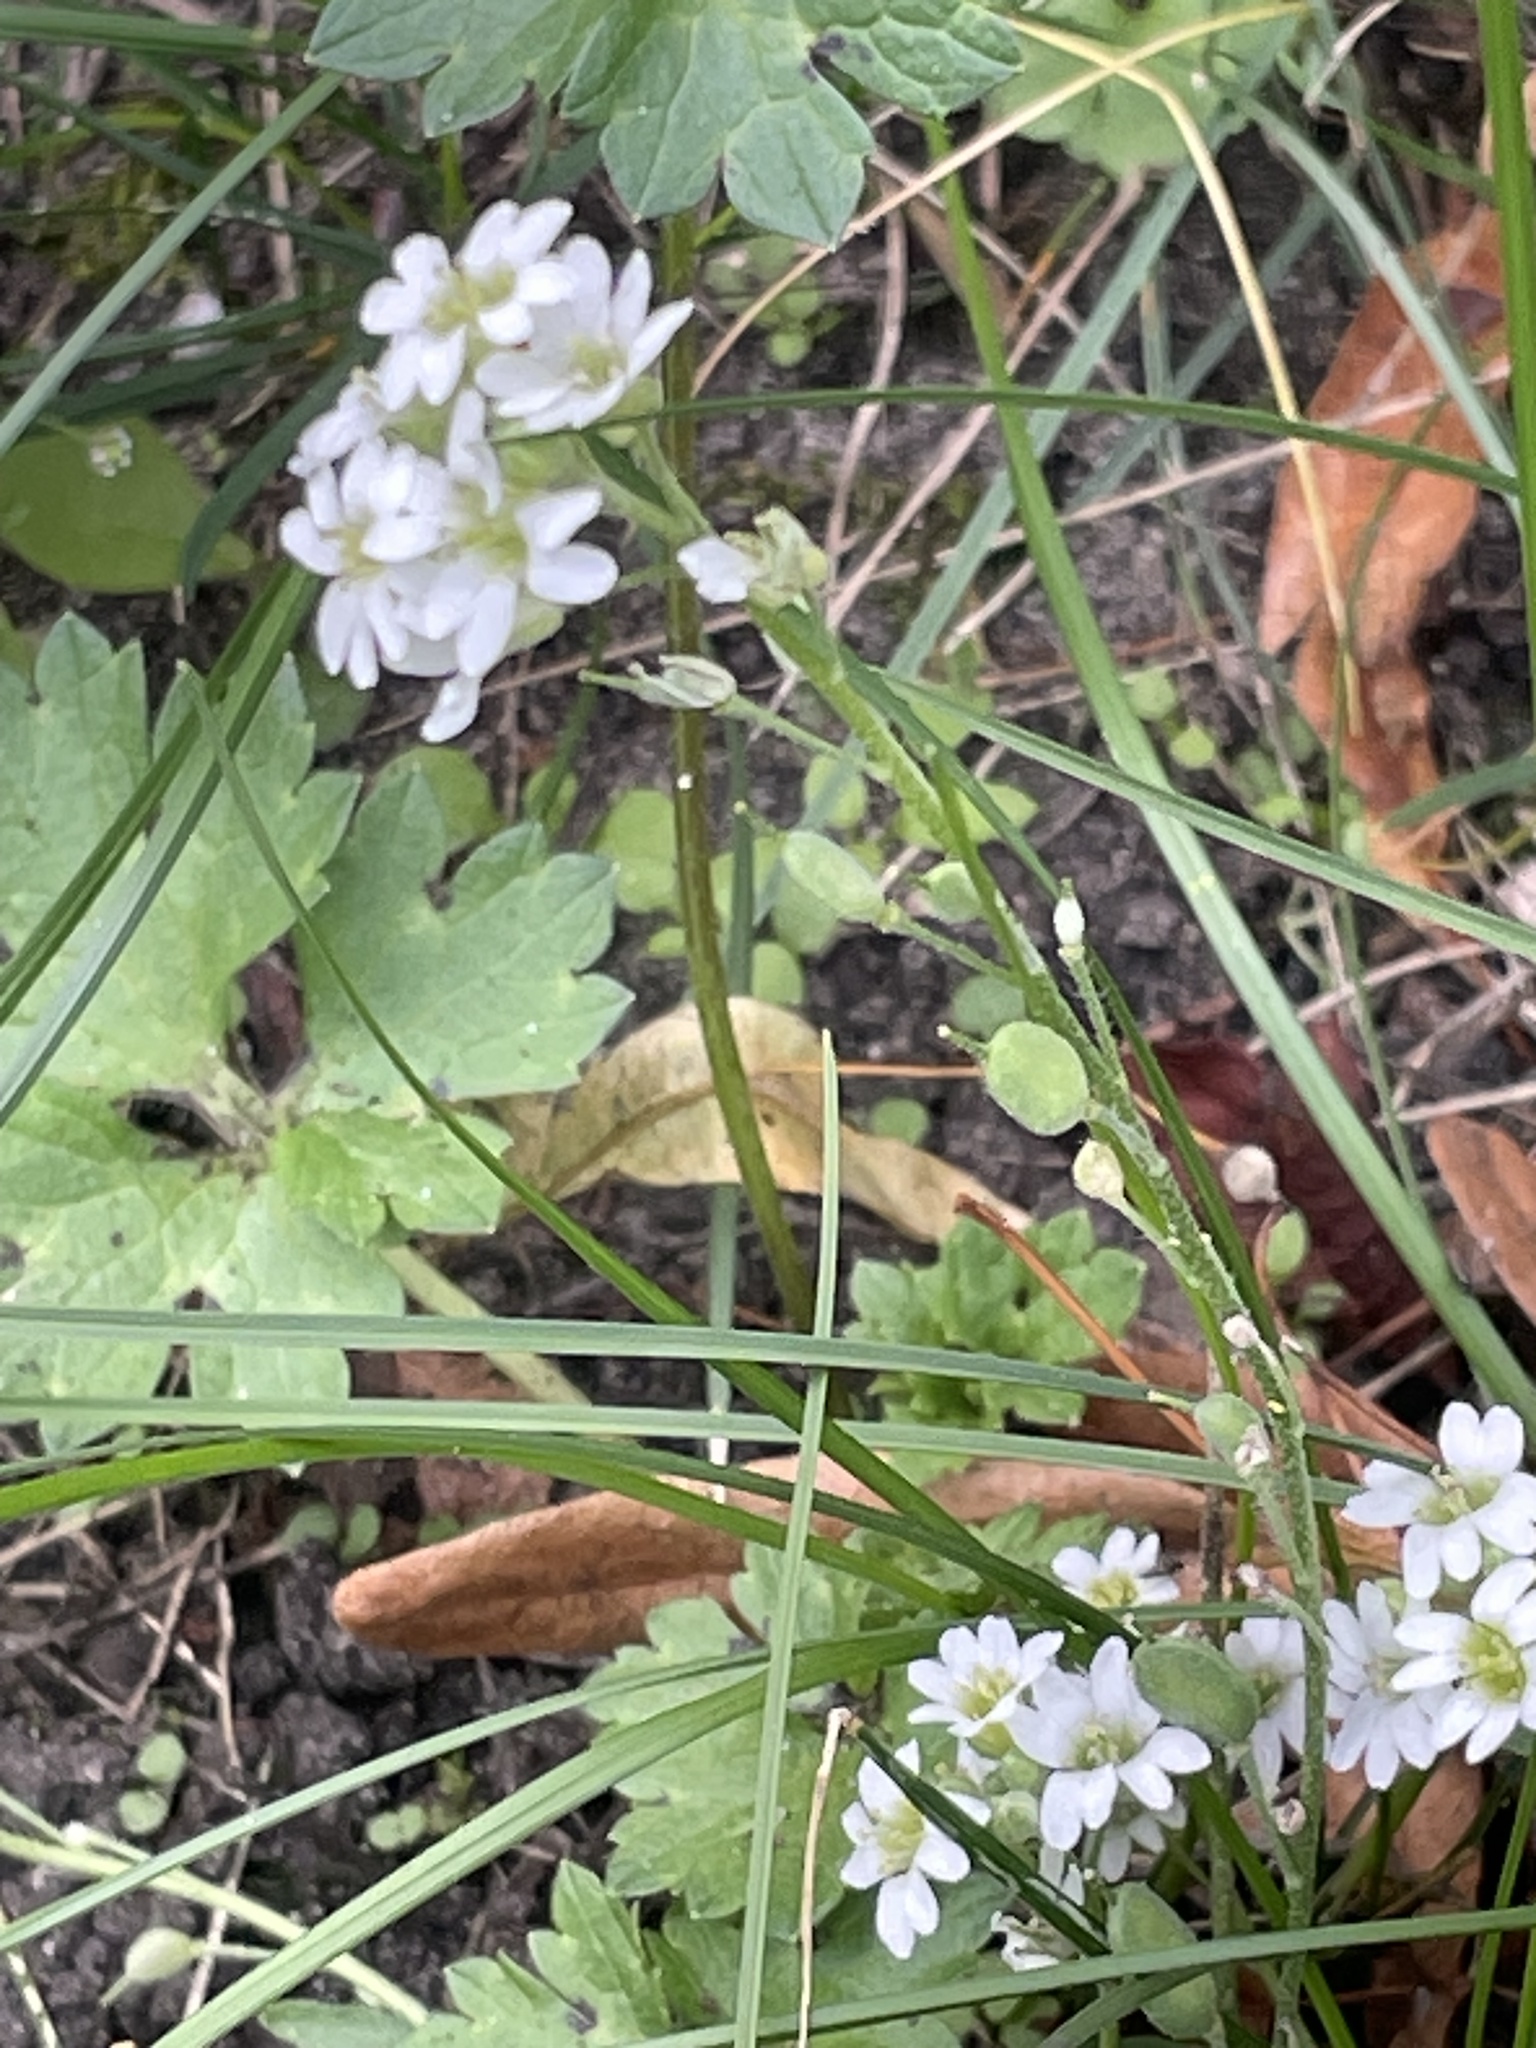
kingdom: Plantae
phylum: Tracheophyta
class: Magnoliopsida
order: Brassicales
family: Brassicaceae
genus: Berteroa
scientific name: Berteroa incana
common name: Hoary alison
